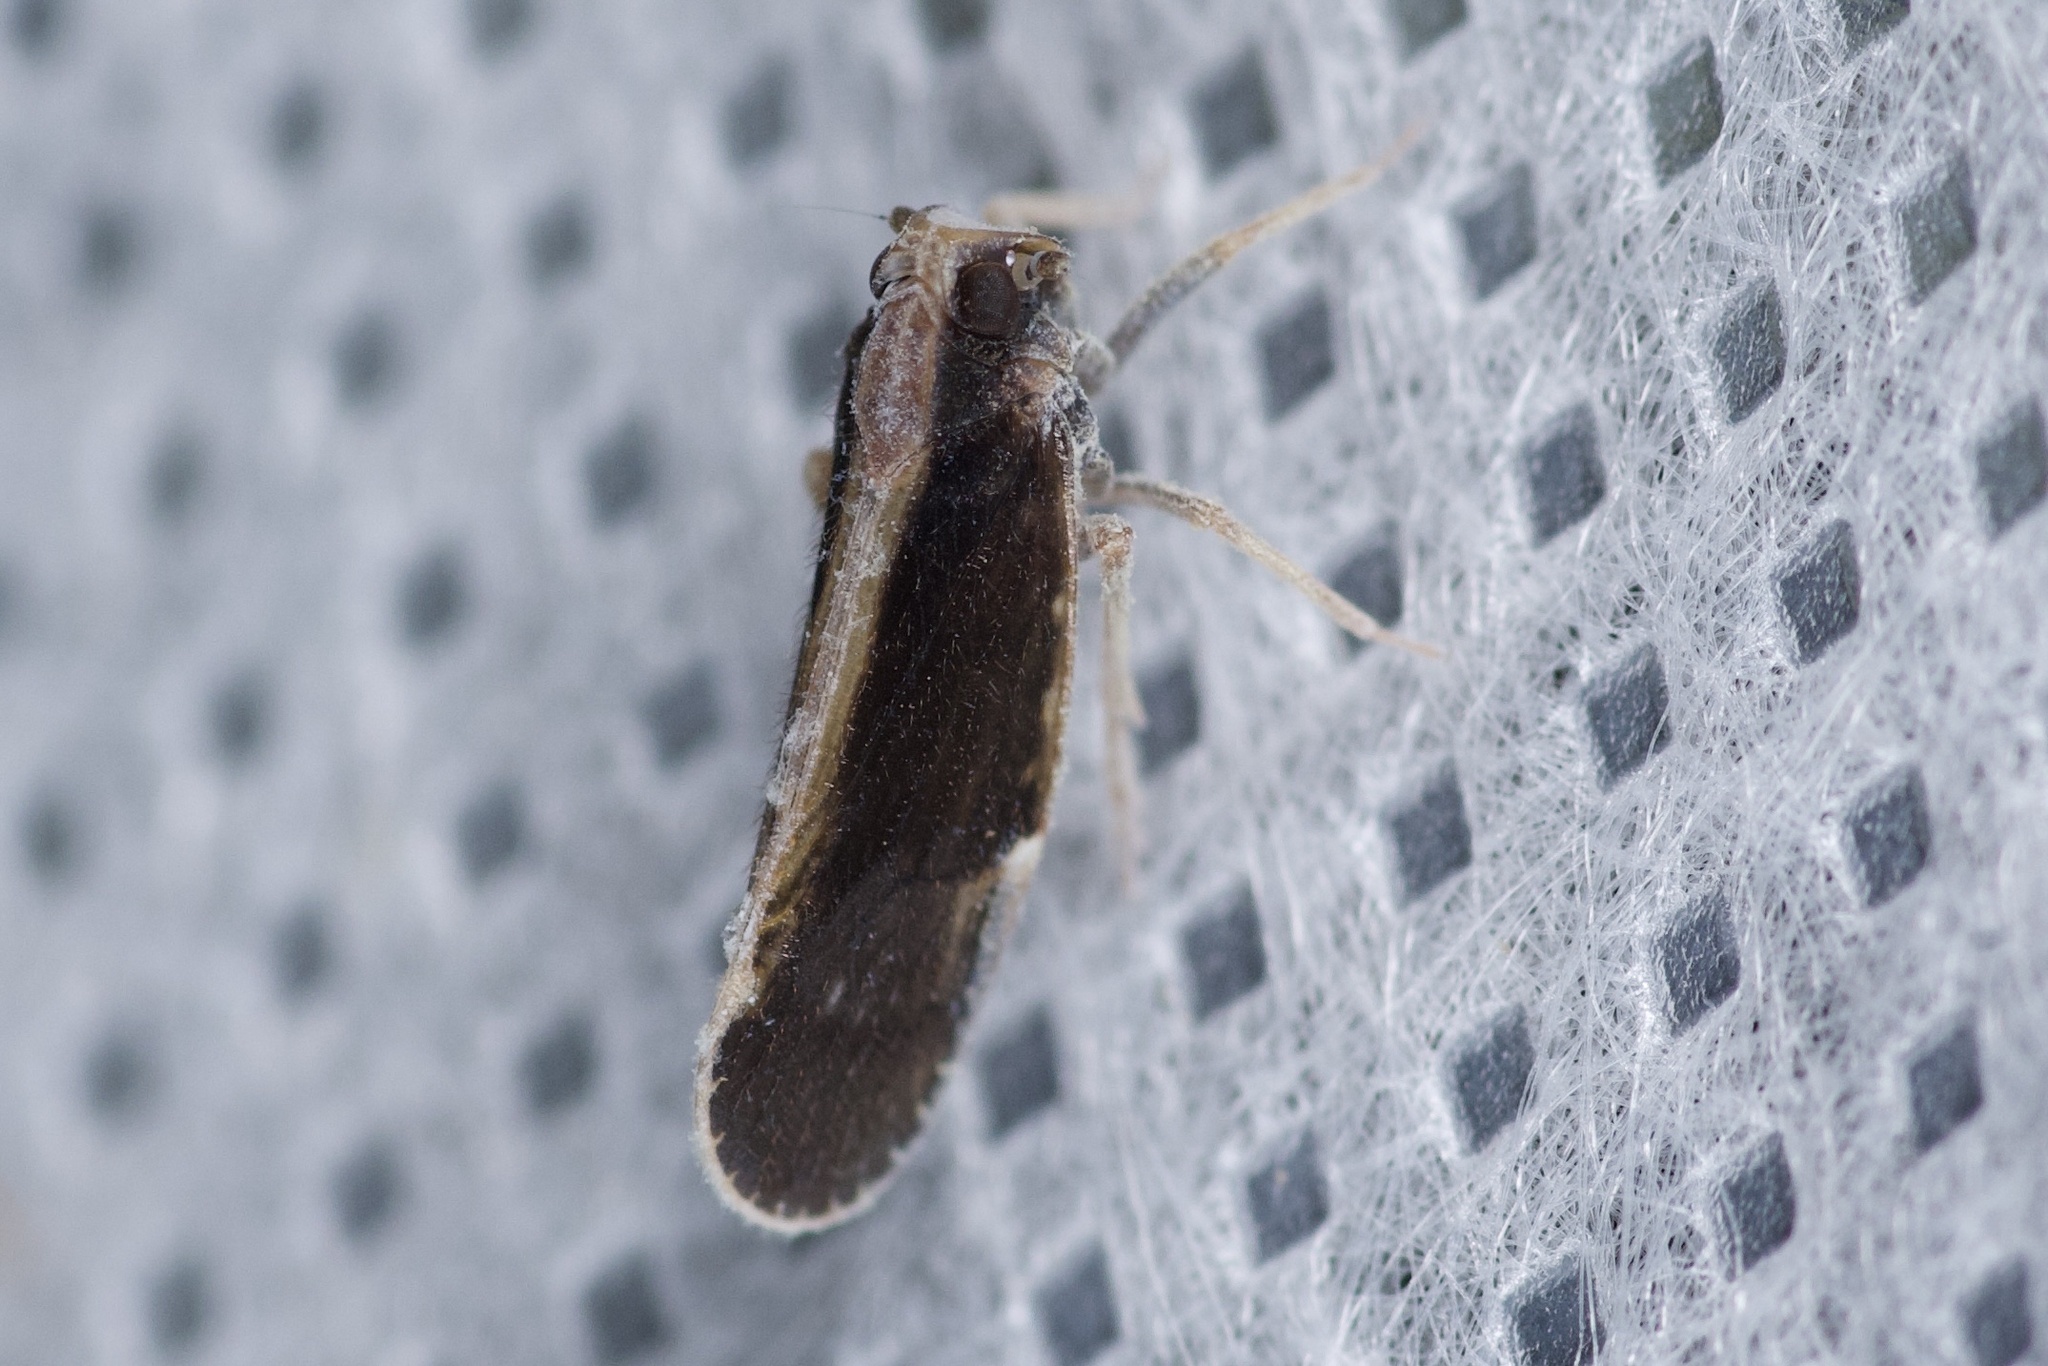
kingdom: Animalia
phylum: Arthropoda
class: Insecta
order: Hemiptera
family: Cixiidae
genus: Pintalia
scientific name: Pintalia delicata
